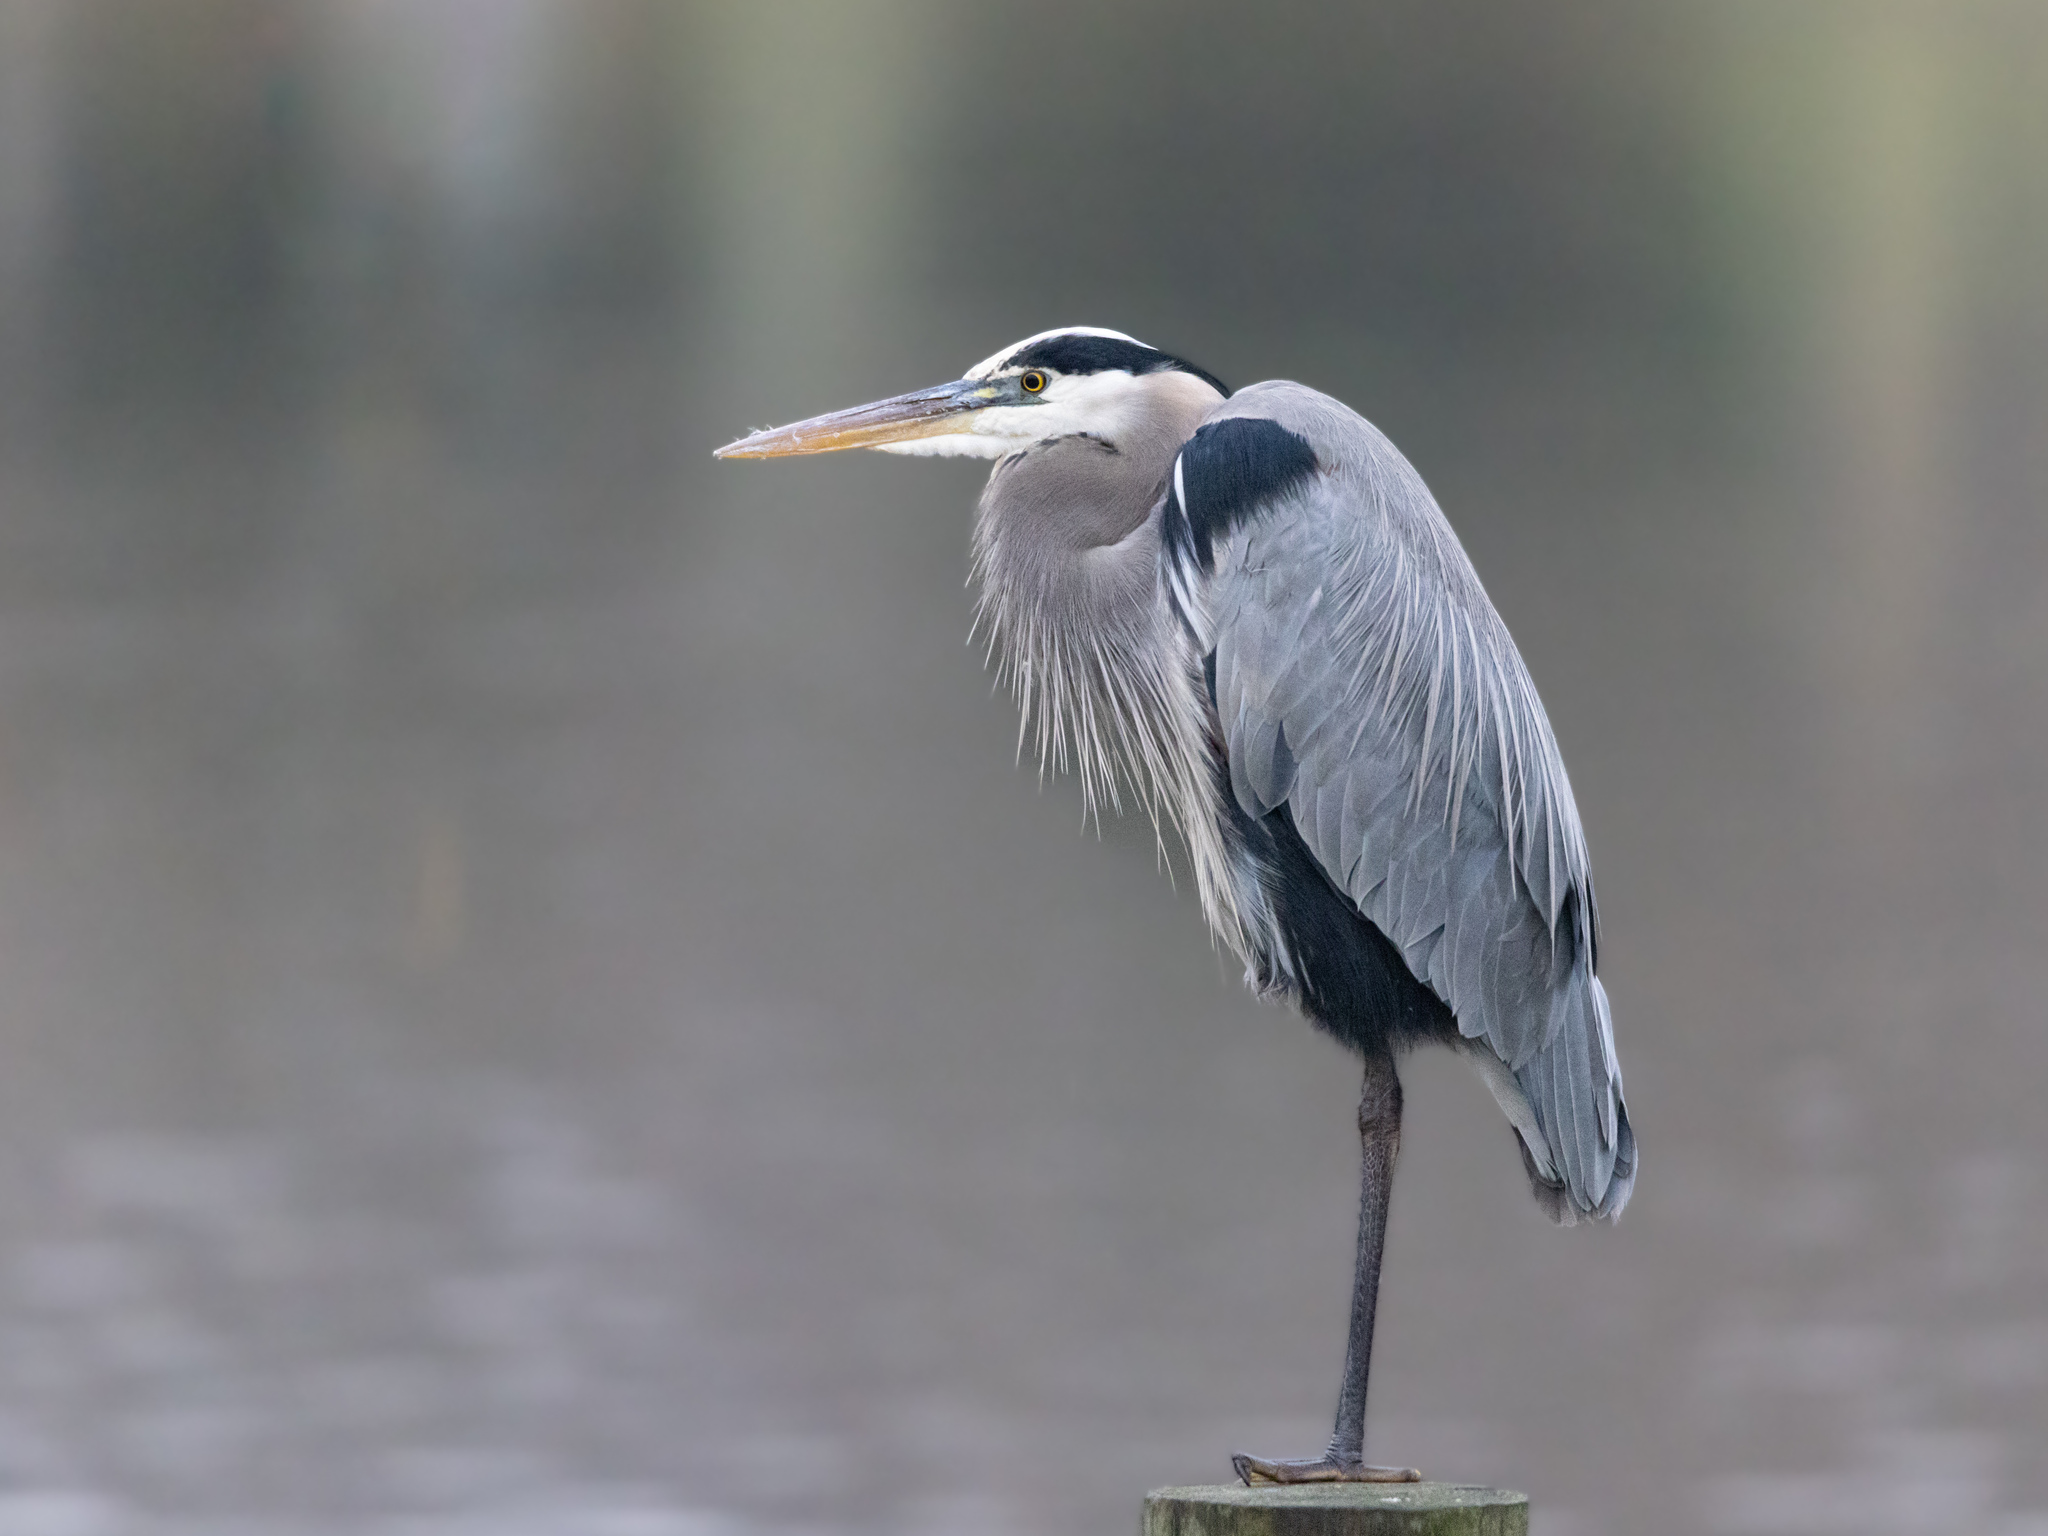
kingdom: Animalia
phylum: Chordata
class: Aves
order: Pelecaniformes
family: Ardeidae
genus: Ardea
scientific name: Ardea herodias
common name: Great blue heron
